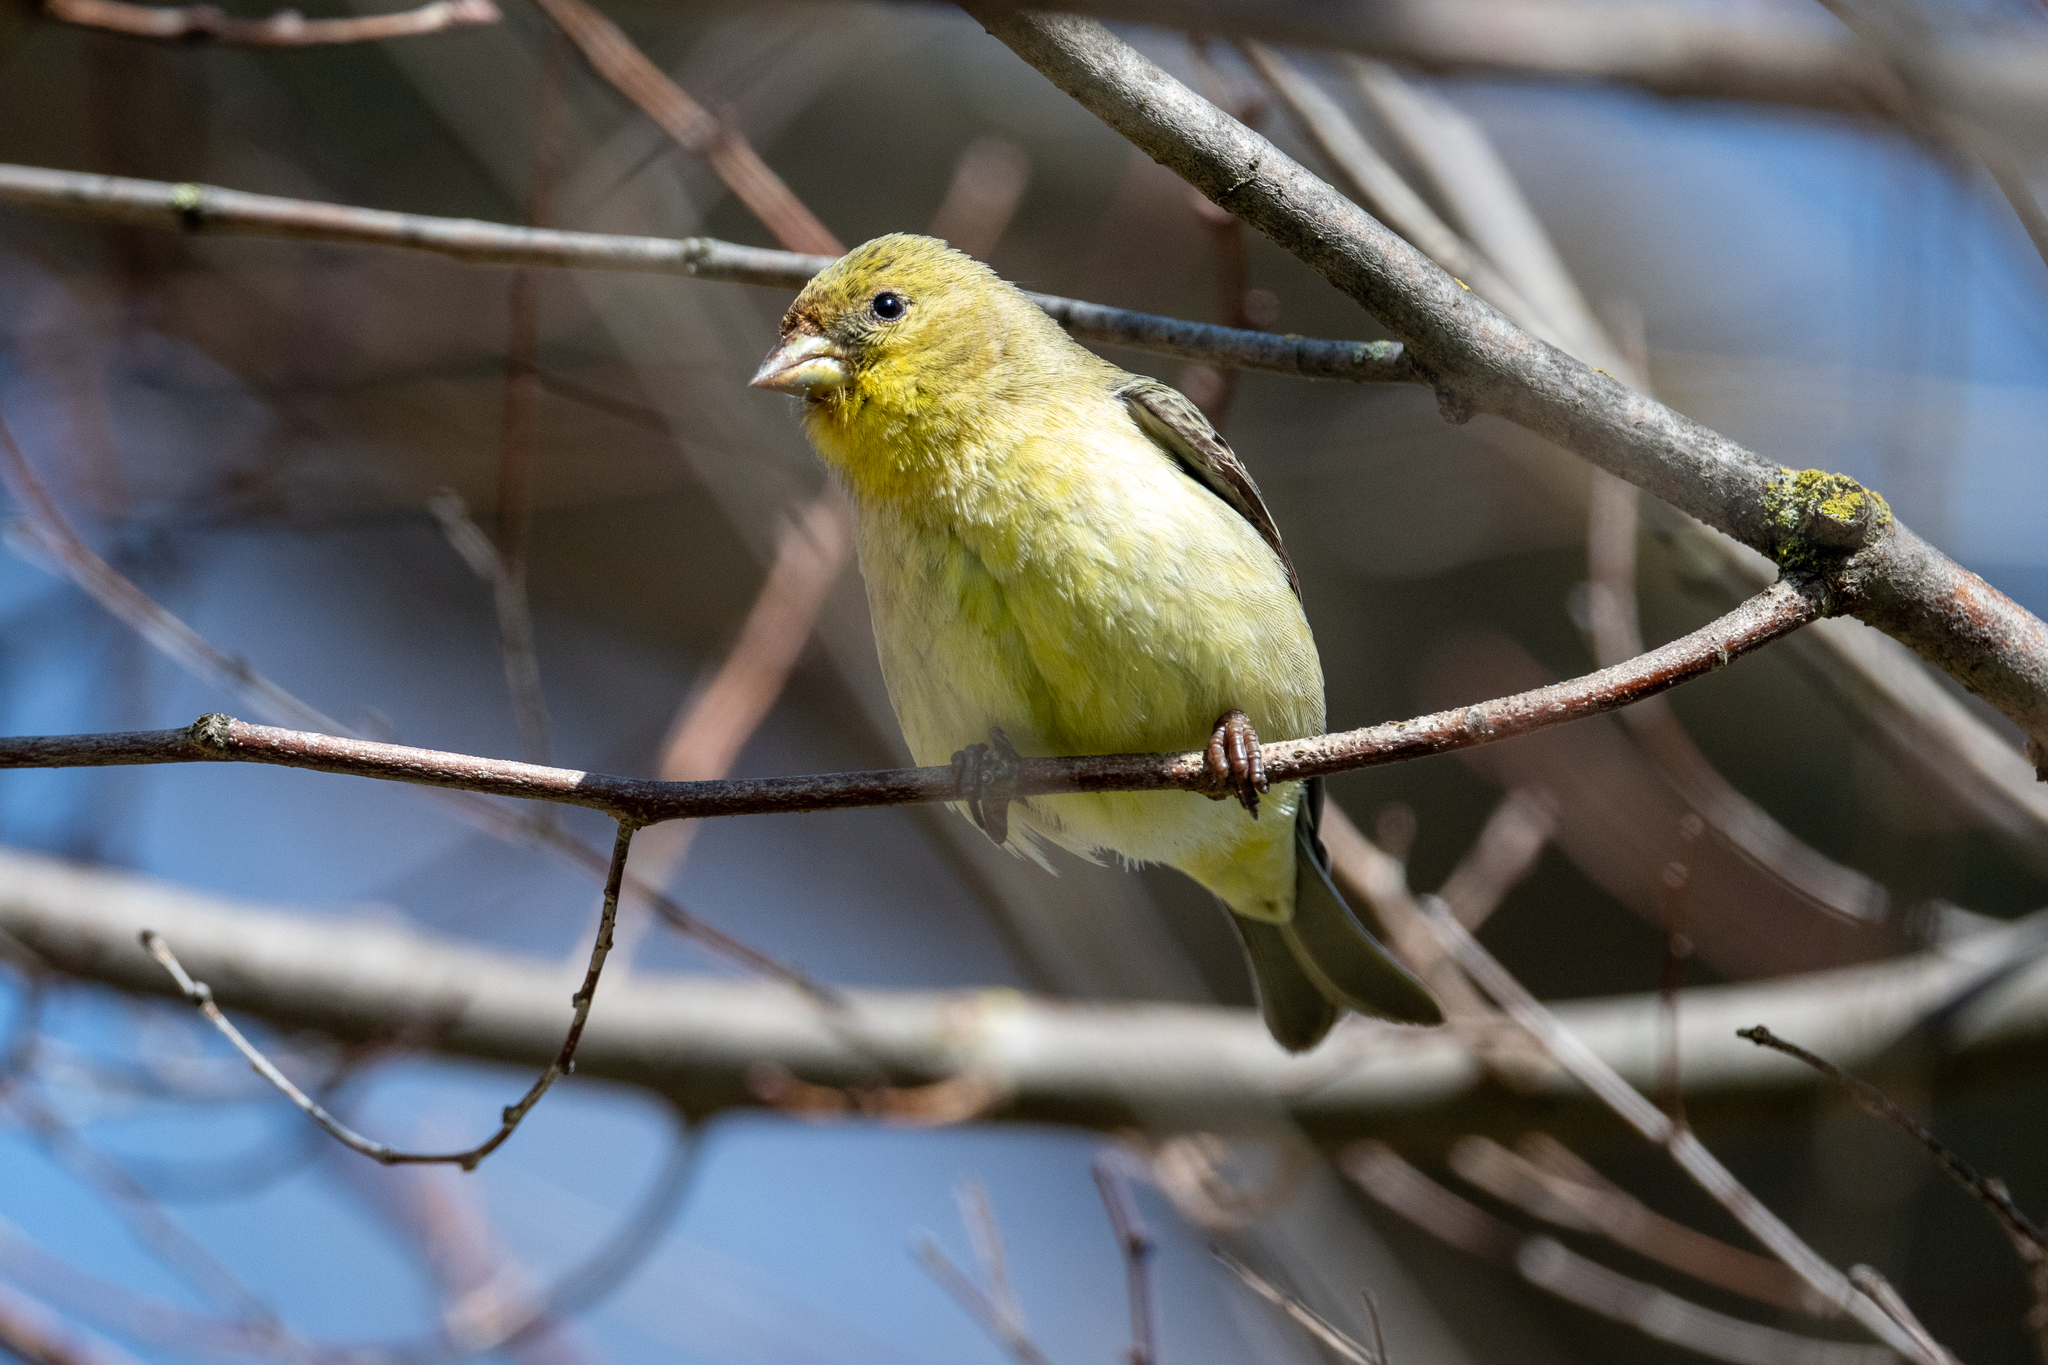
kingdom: Animalia
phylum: Chordata
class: Aves
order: Passeriformes
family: Fringillidae
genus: Spinus
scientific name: Spinus psaltria
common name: Lesser goldfinch
